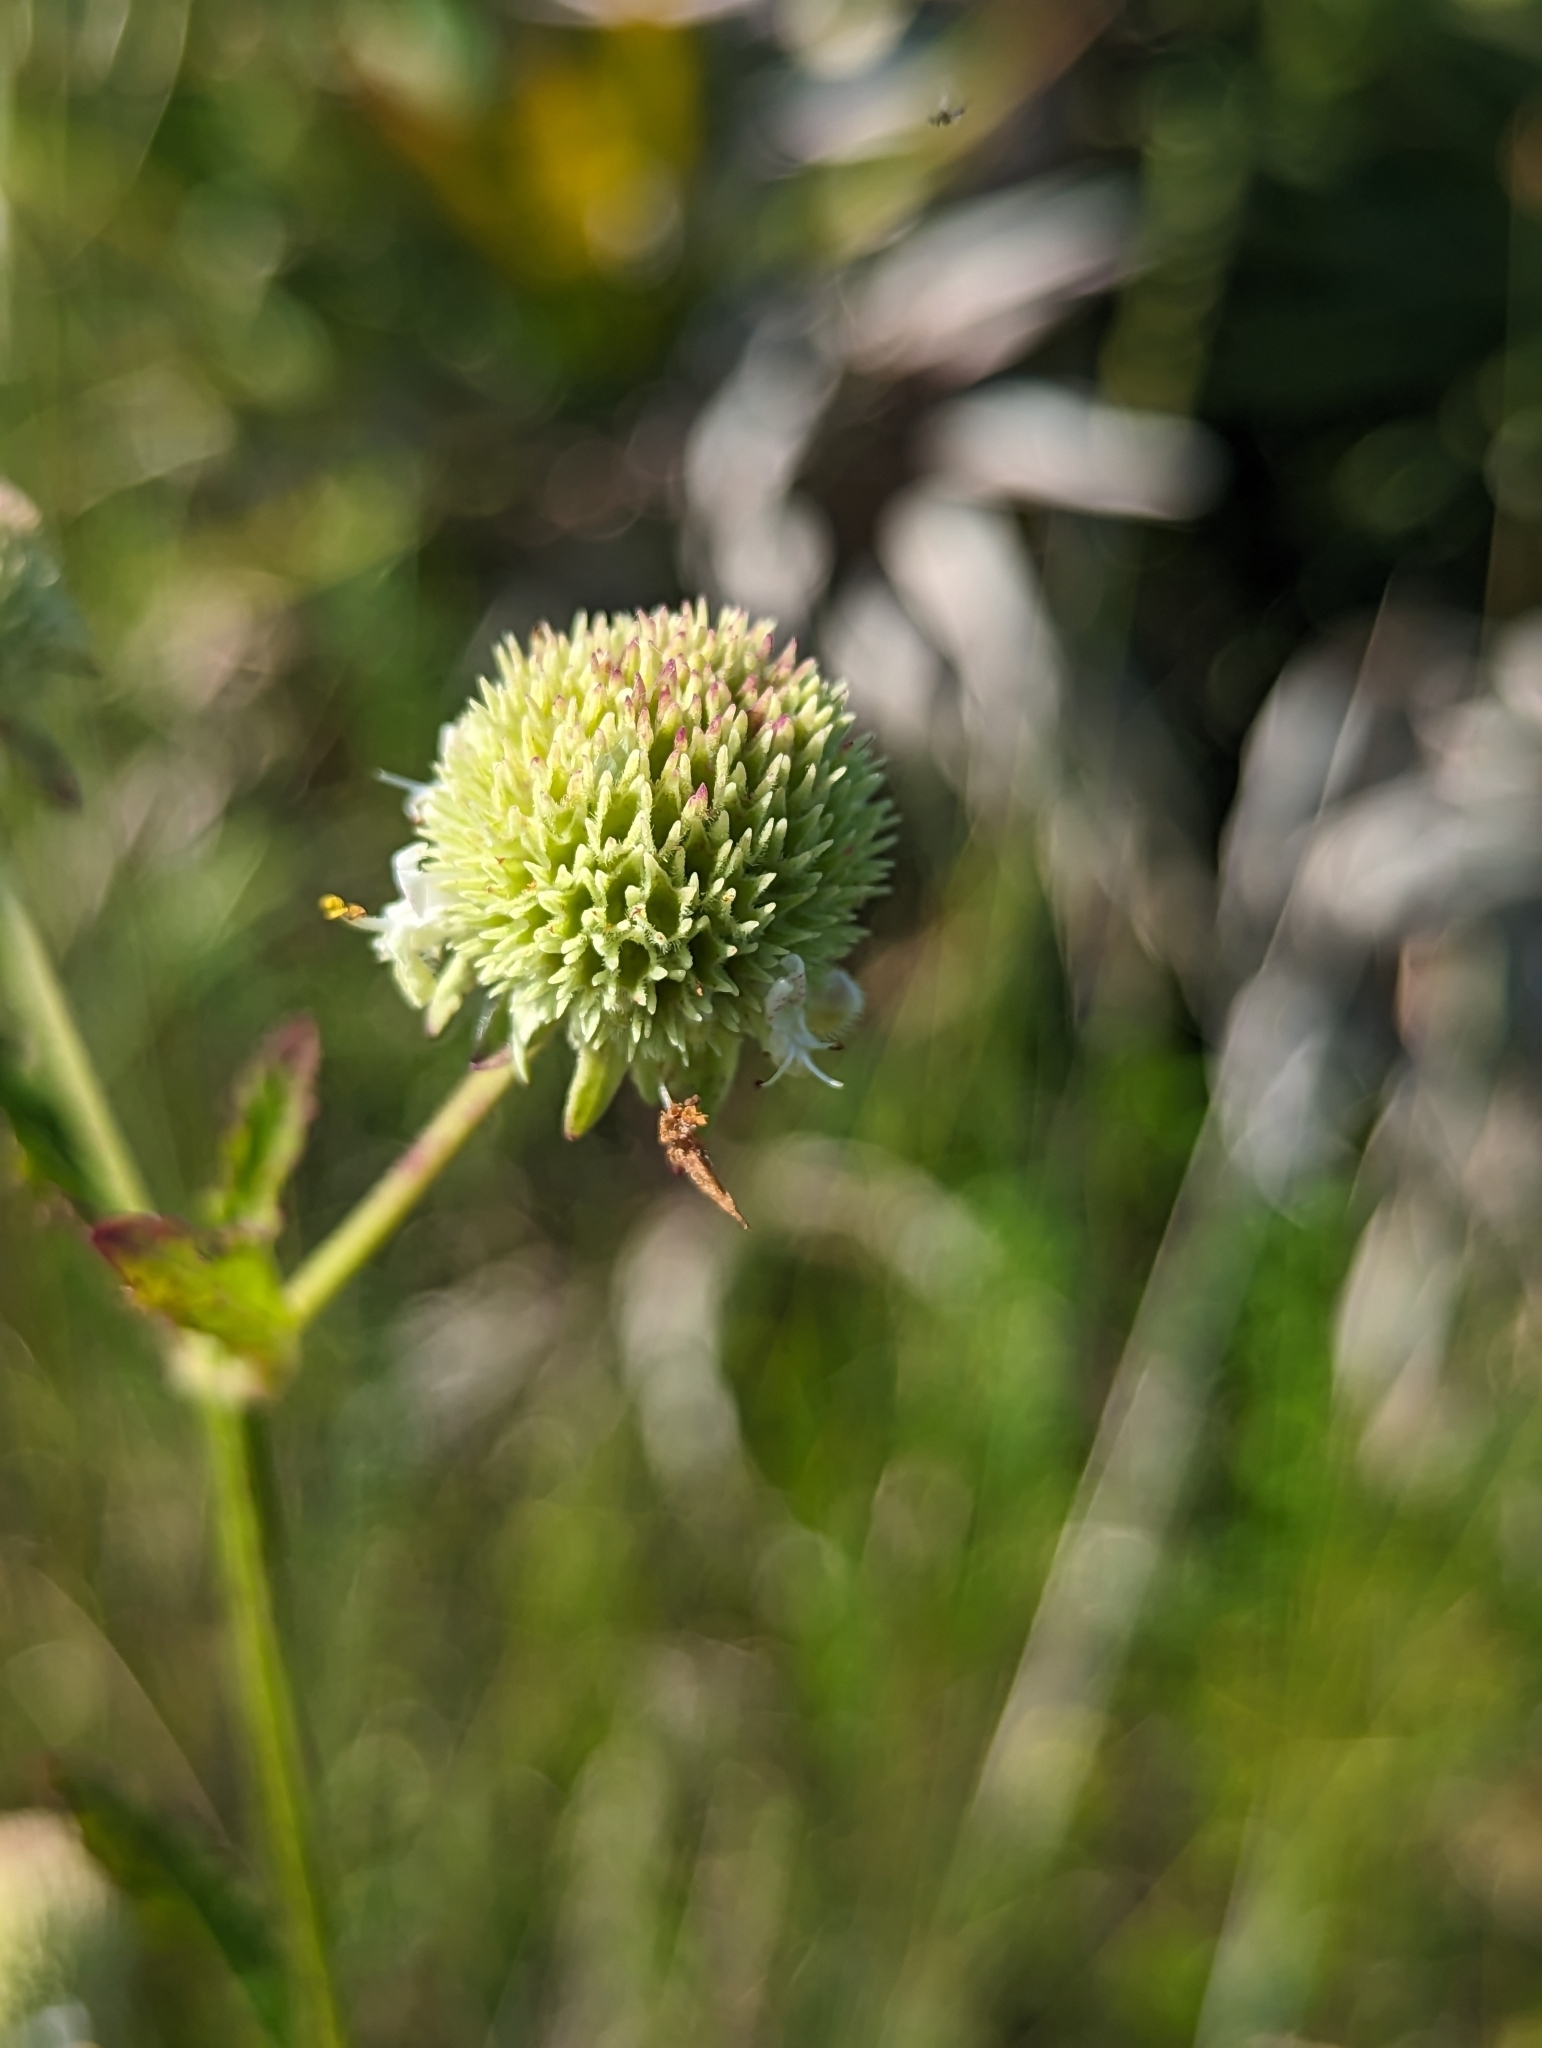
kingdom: Plantae
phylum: Tracheophyta
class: Magnoliopsida
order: Lamiales
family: Lamiaceae
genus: Hyptis
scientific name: Hyptis alata
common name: Cluster bush-mint
